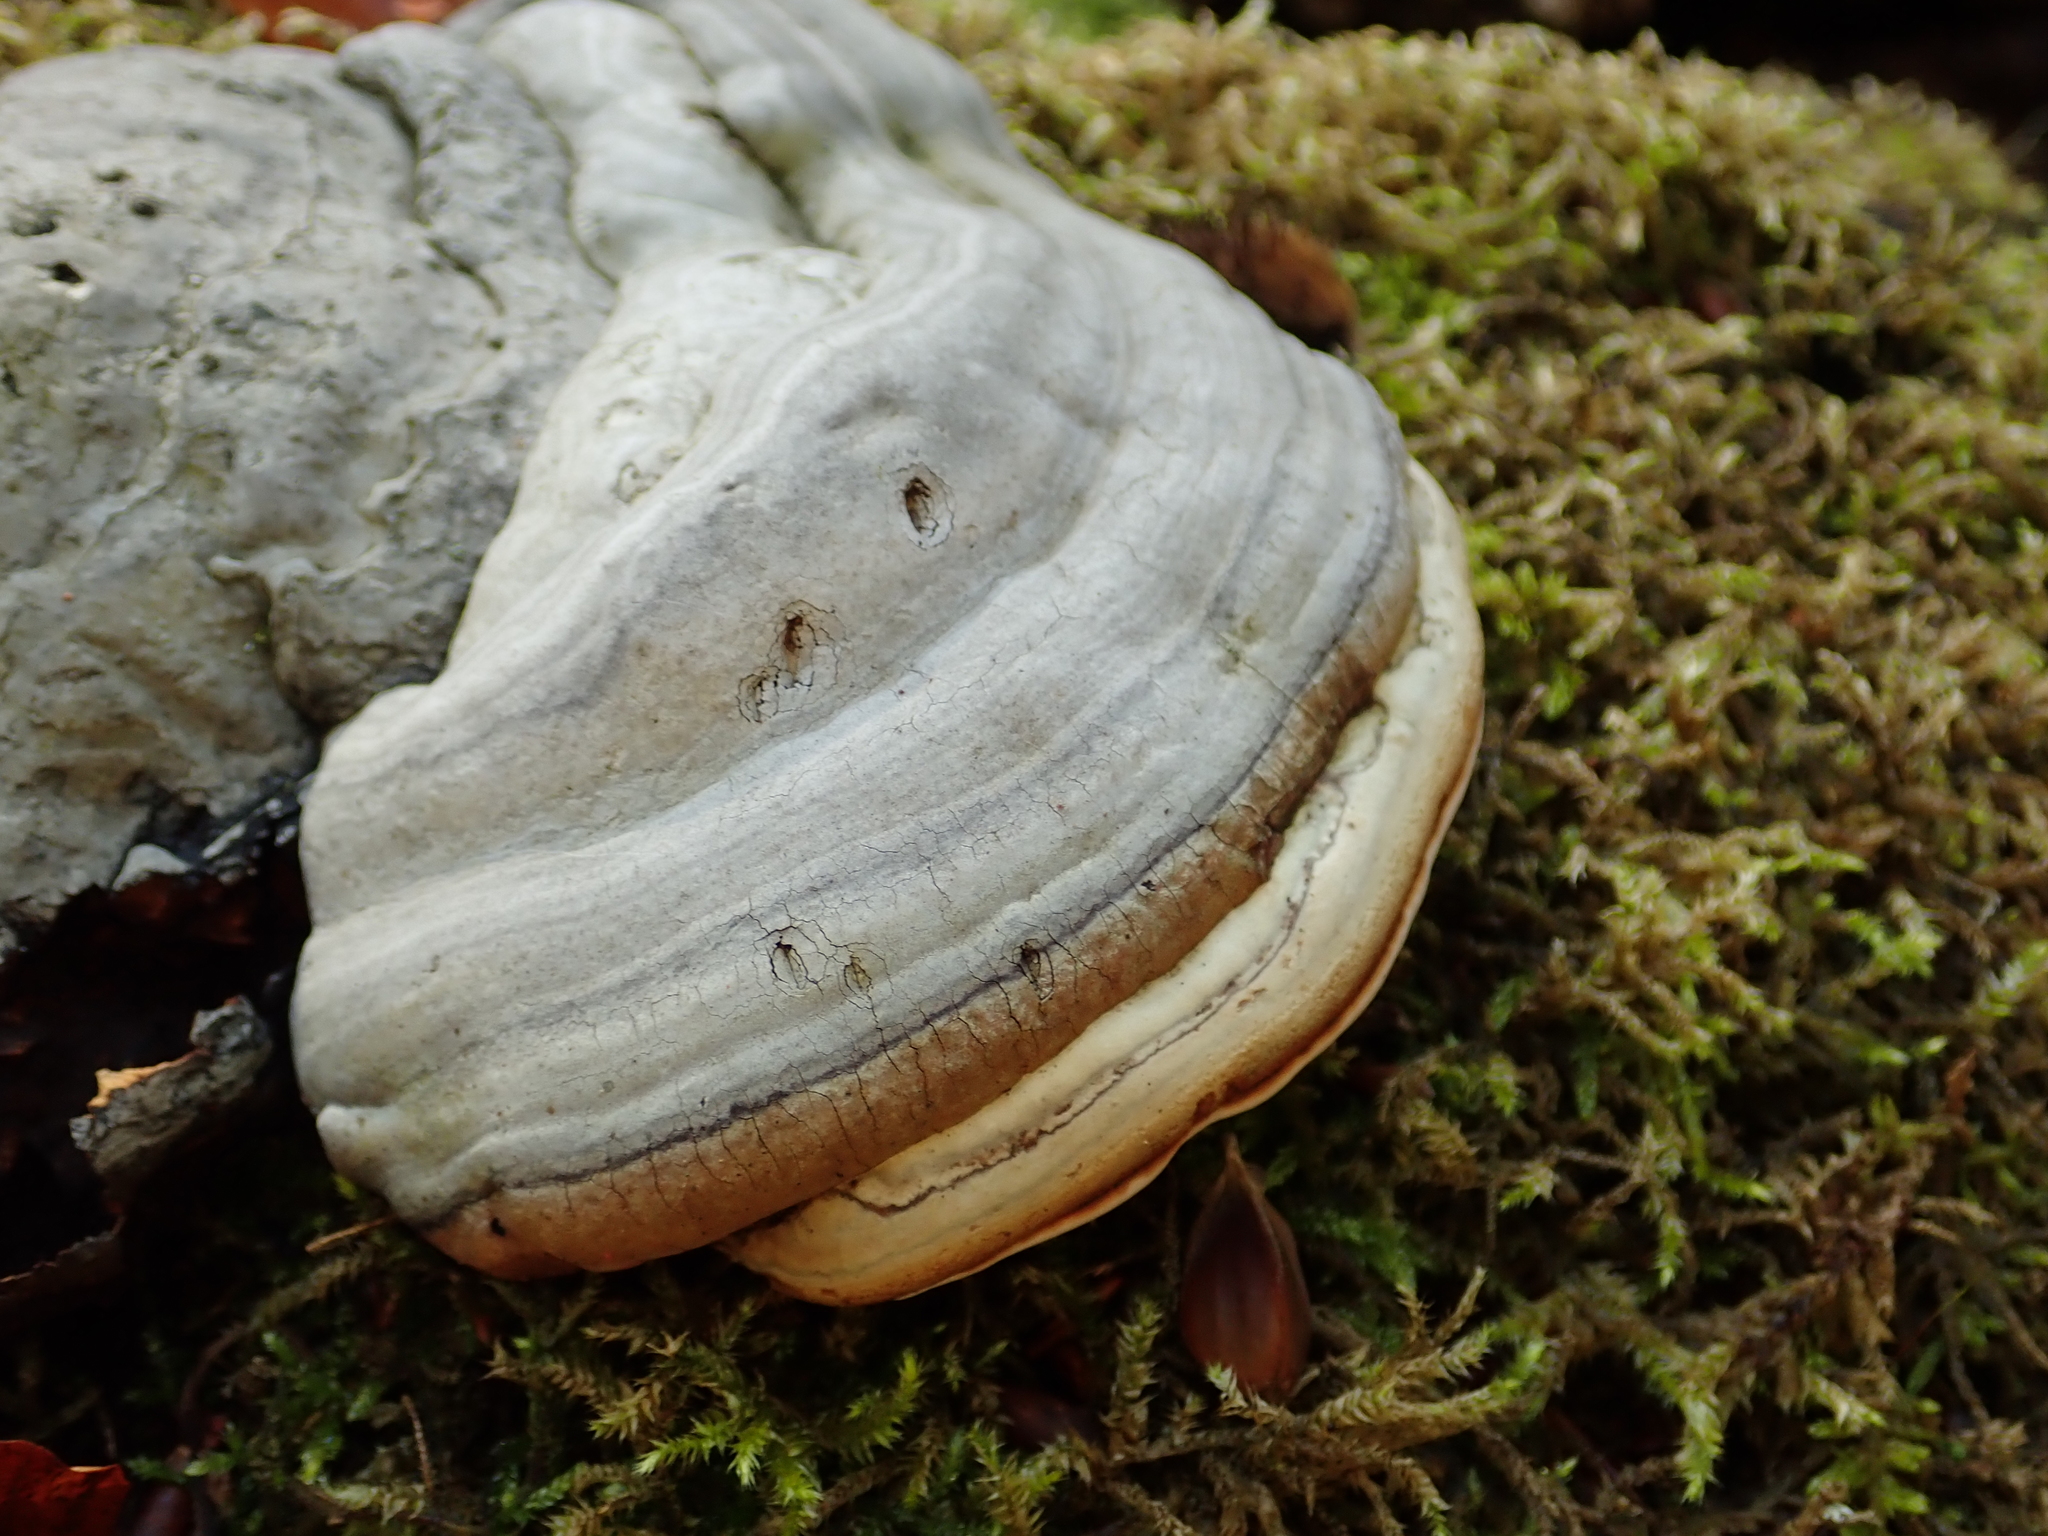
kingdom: Fungi
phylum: Basidiomycota
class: Agaricomycetes
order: Polyporales
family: Polyporaceae
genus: Fomes
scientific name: Fomes fomentarius
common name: Hoof fungus
